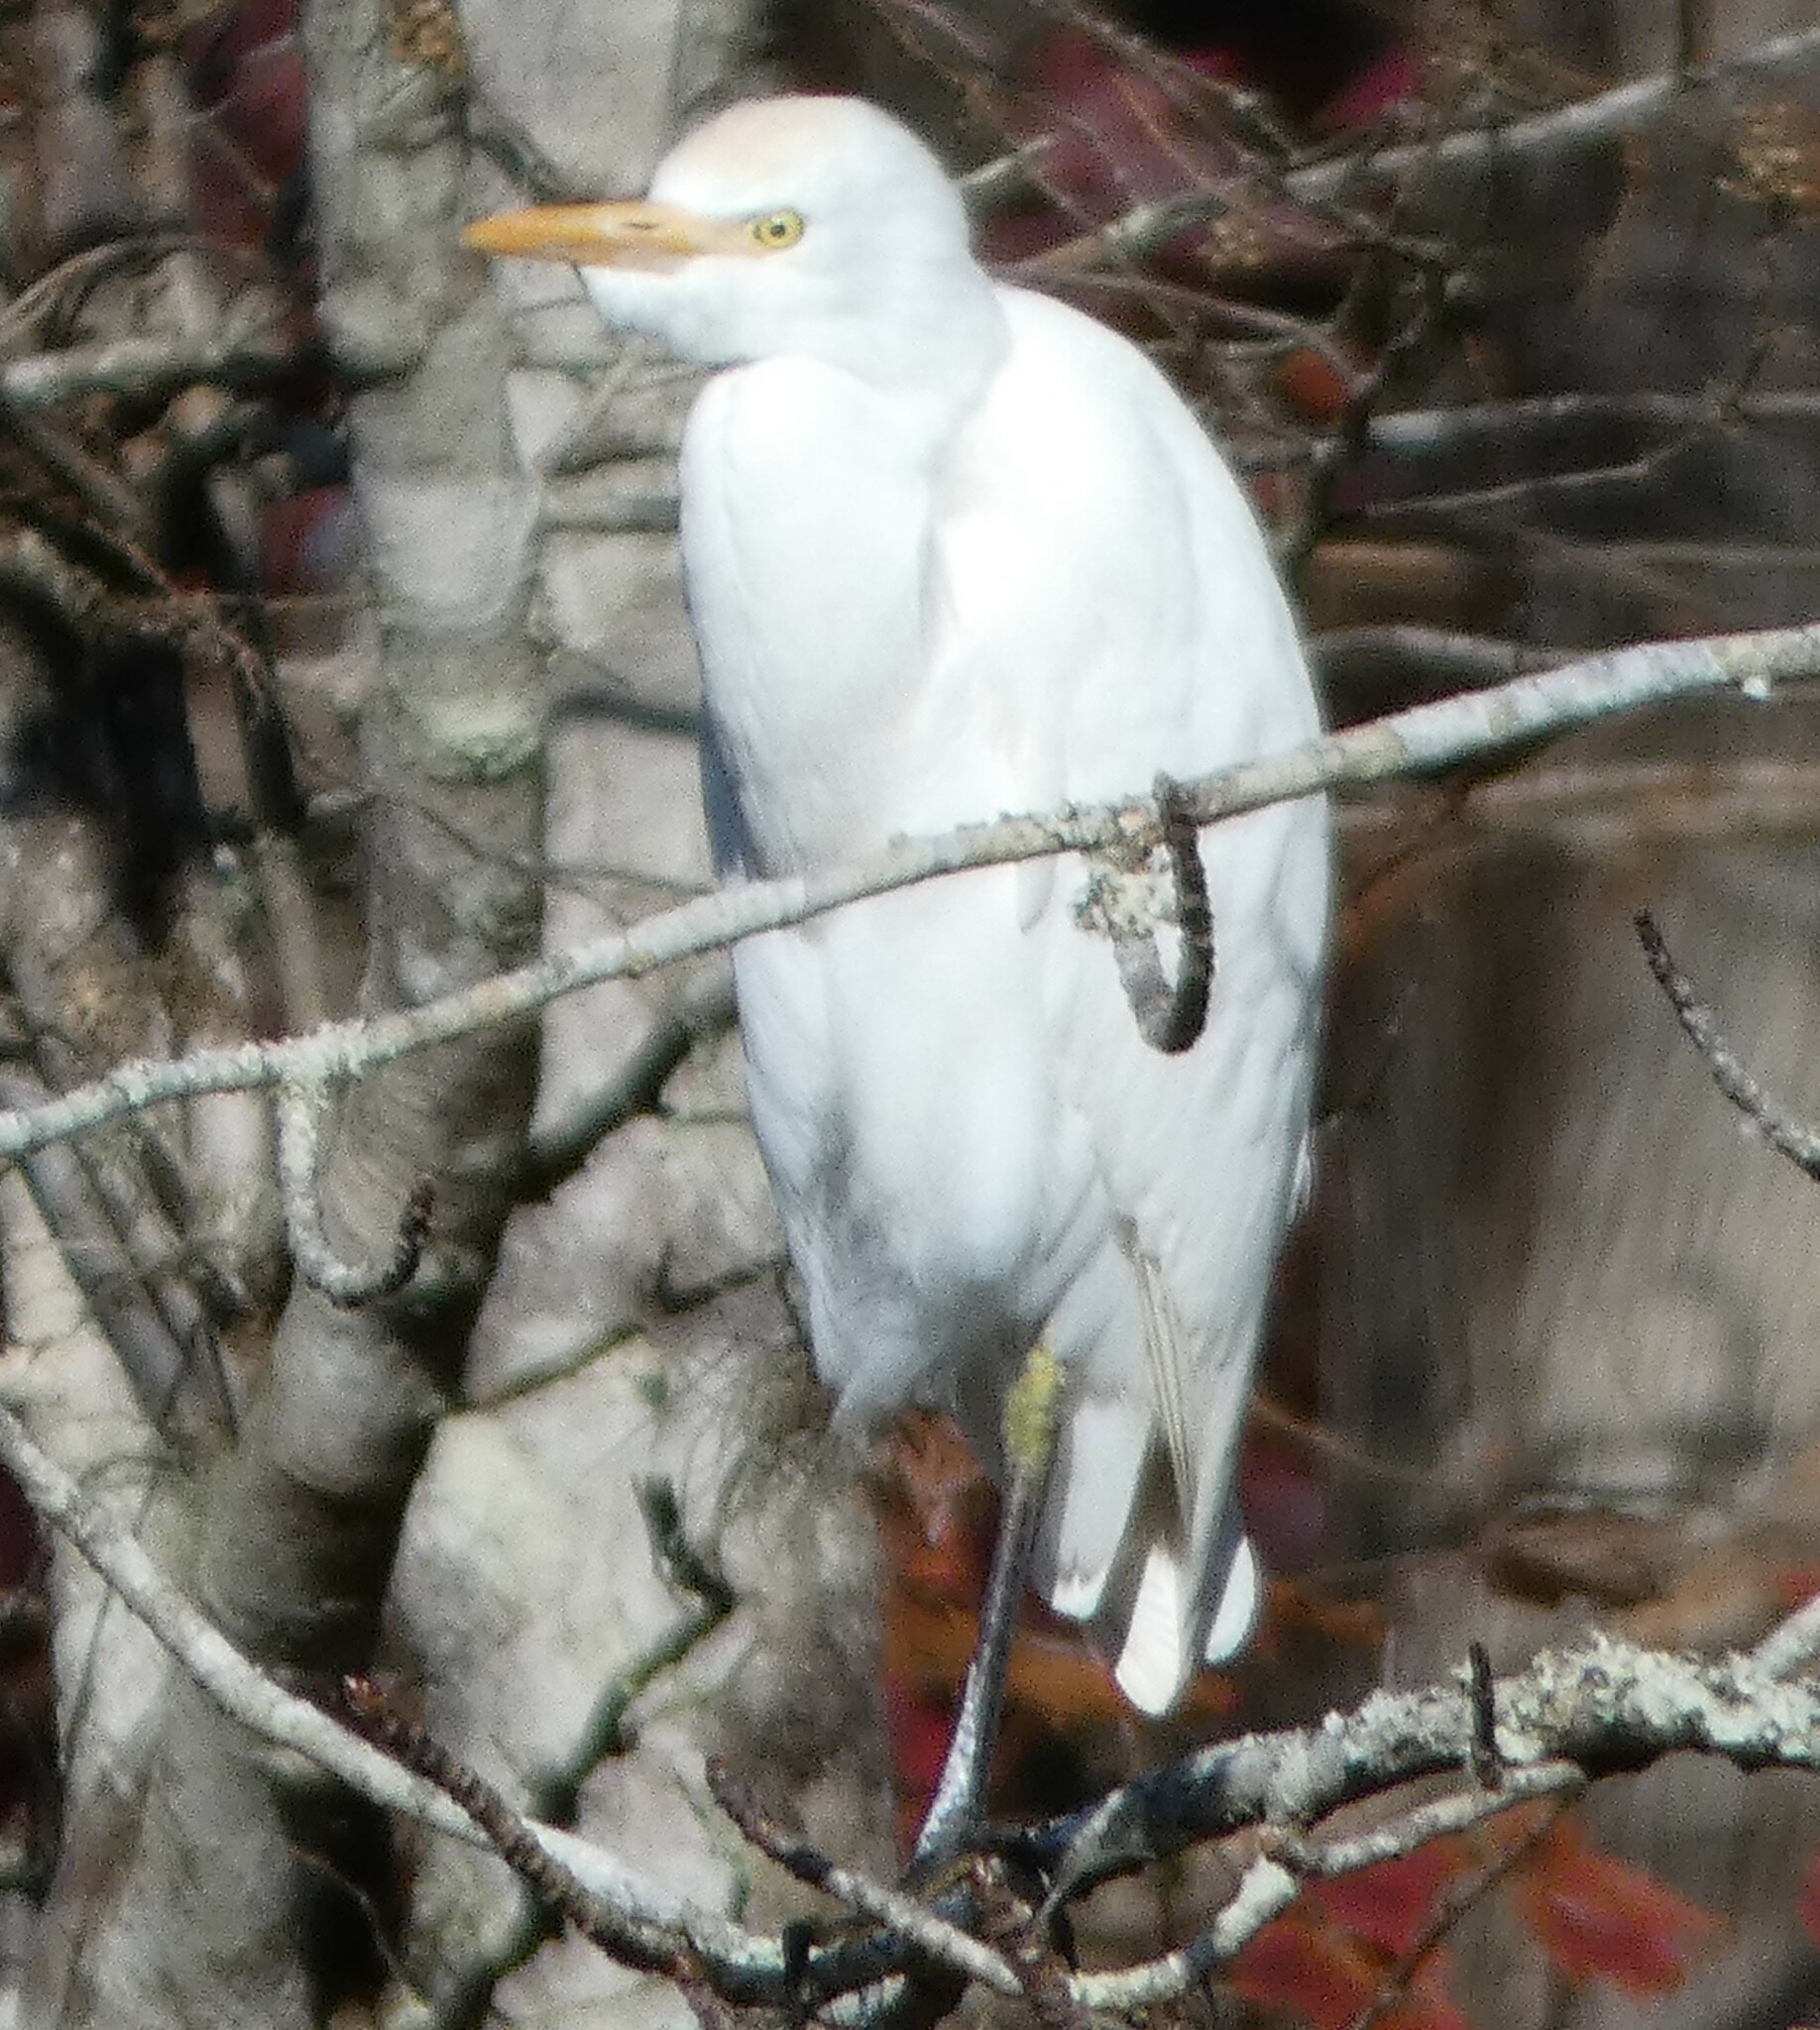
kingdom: Animalia
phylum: Chordata
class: Aves
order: Pelecaniformes
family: Ardeidae
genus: Bubulcus
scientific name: Bubulcus ibis
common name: Cattle egret
